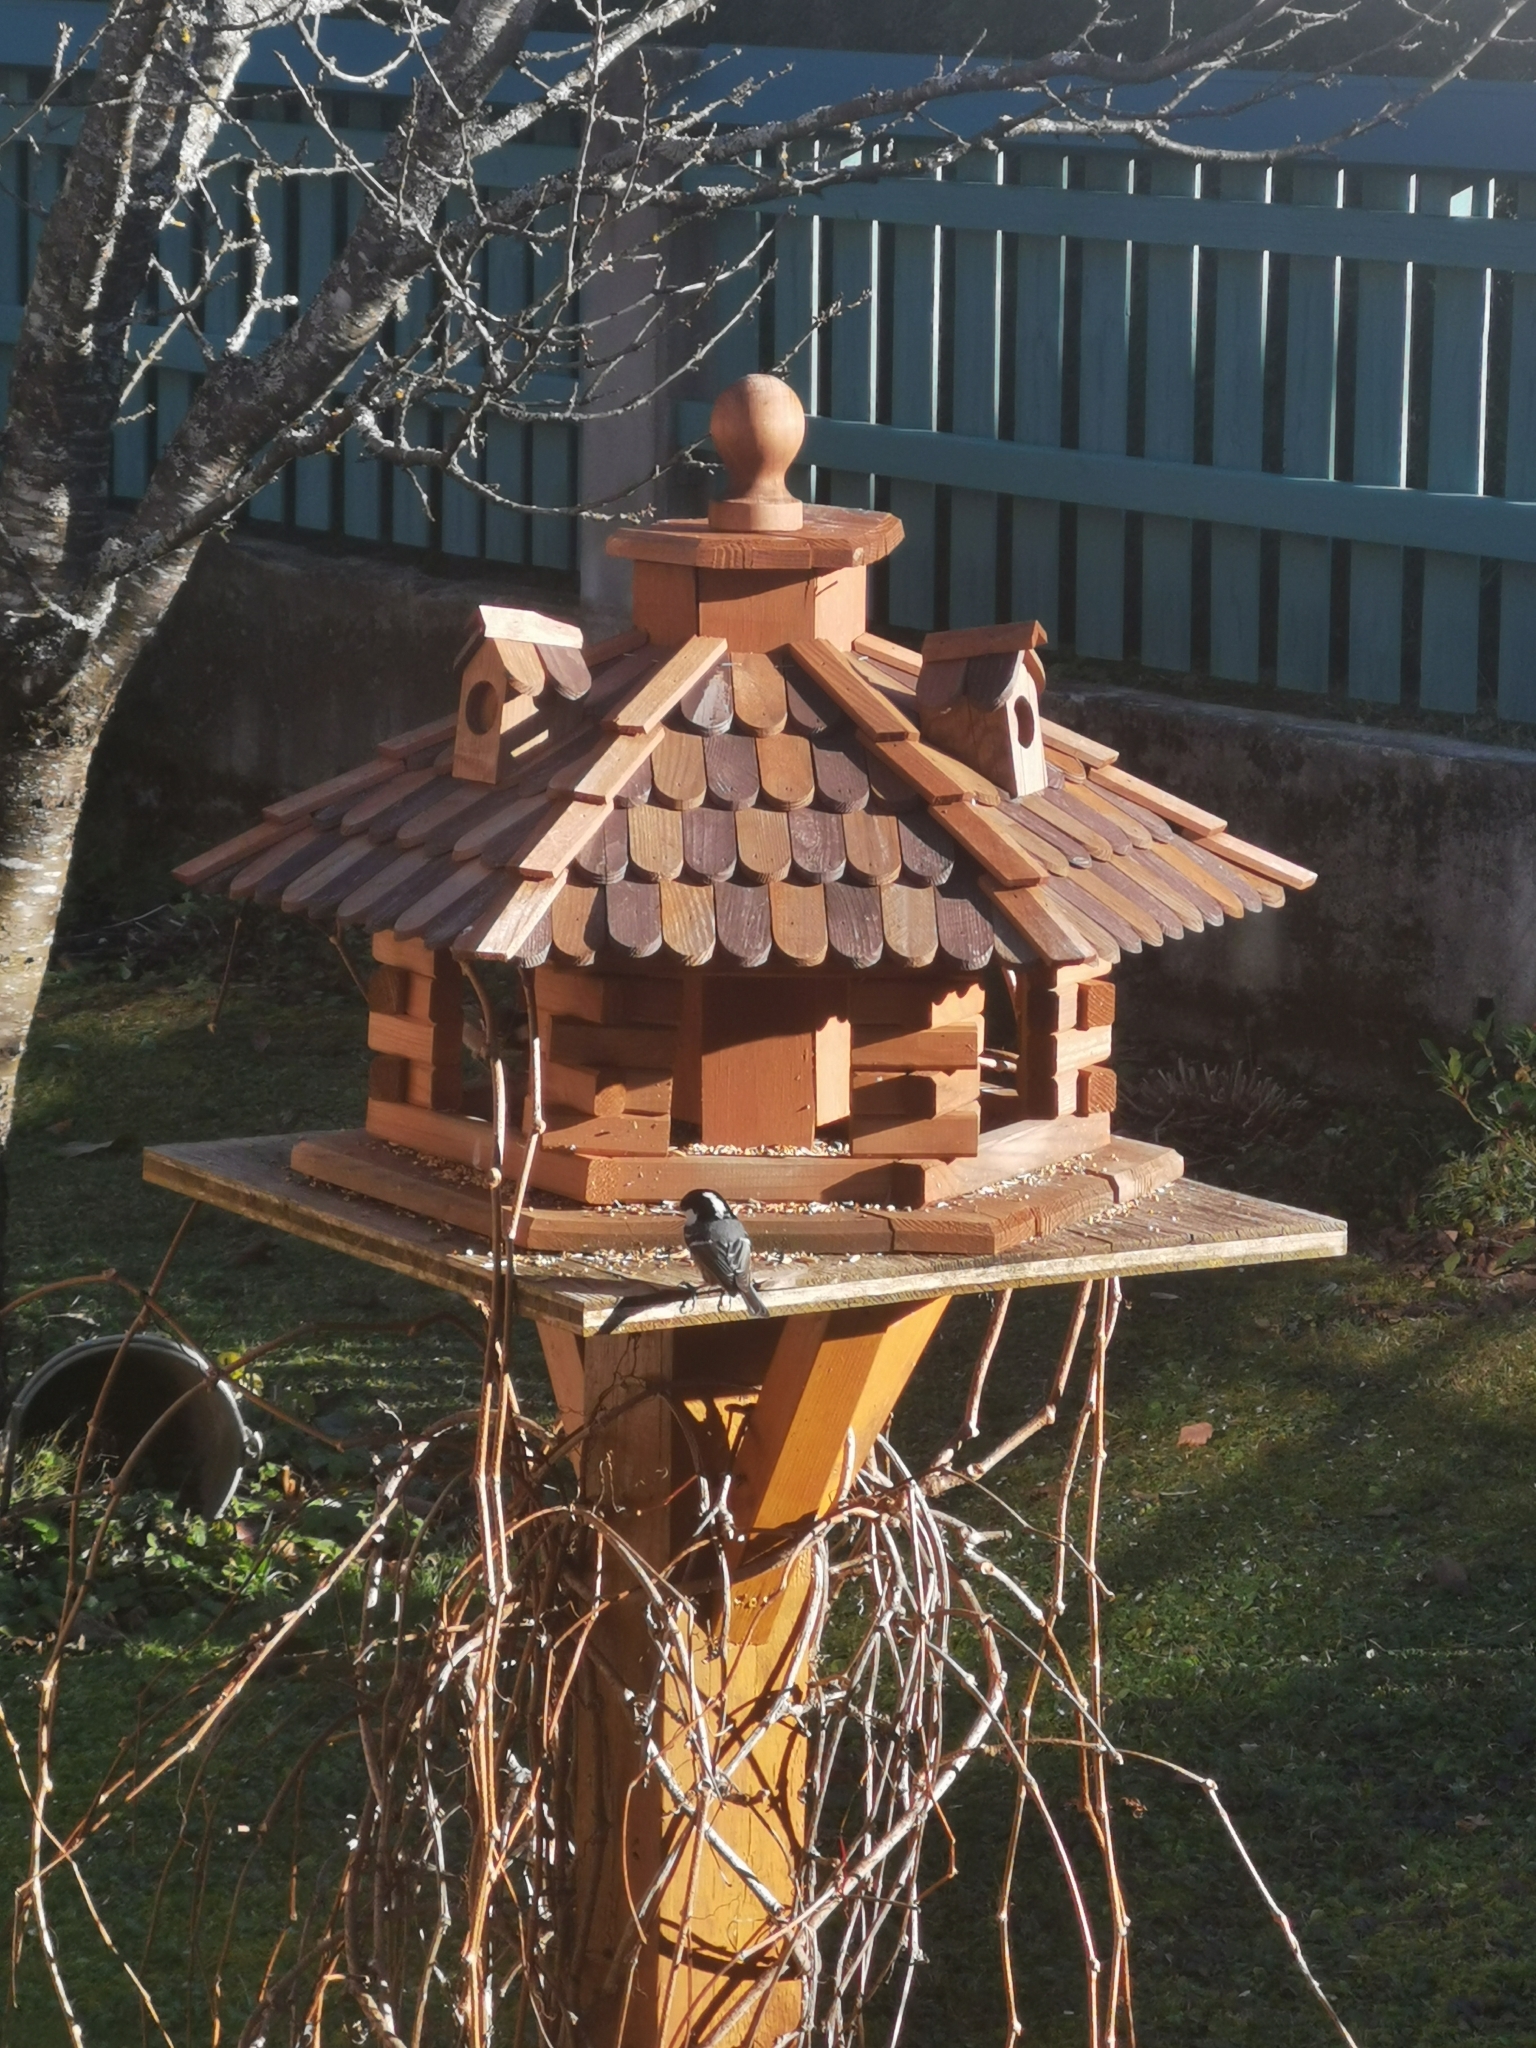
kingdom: Animalia
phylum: Chordata
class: Aves
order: Passeriformes
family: Paridae
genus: Periparus
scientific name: Periparus ater
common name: Coal tit
